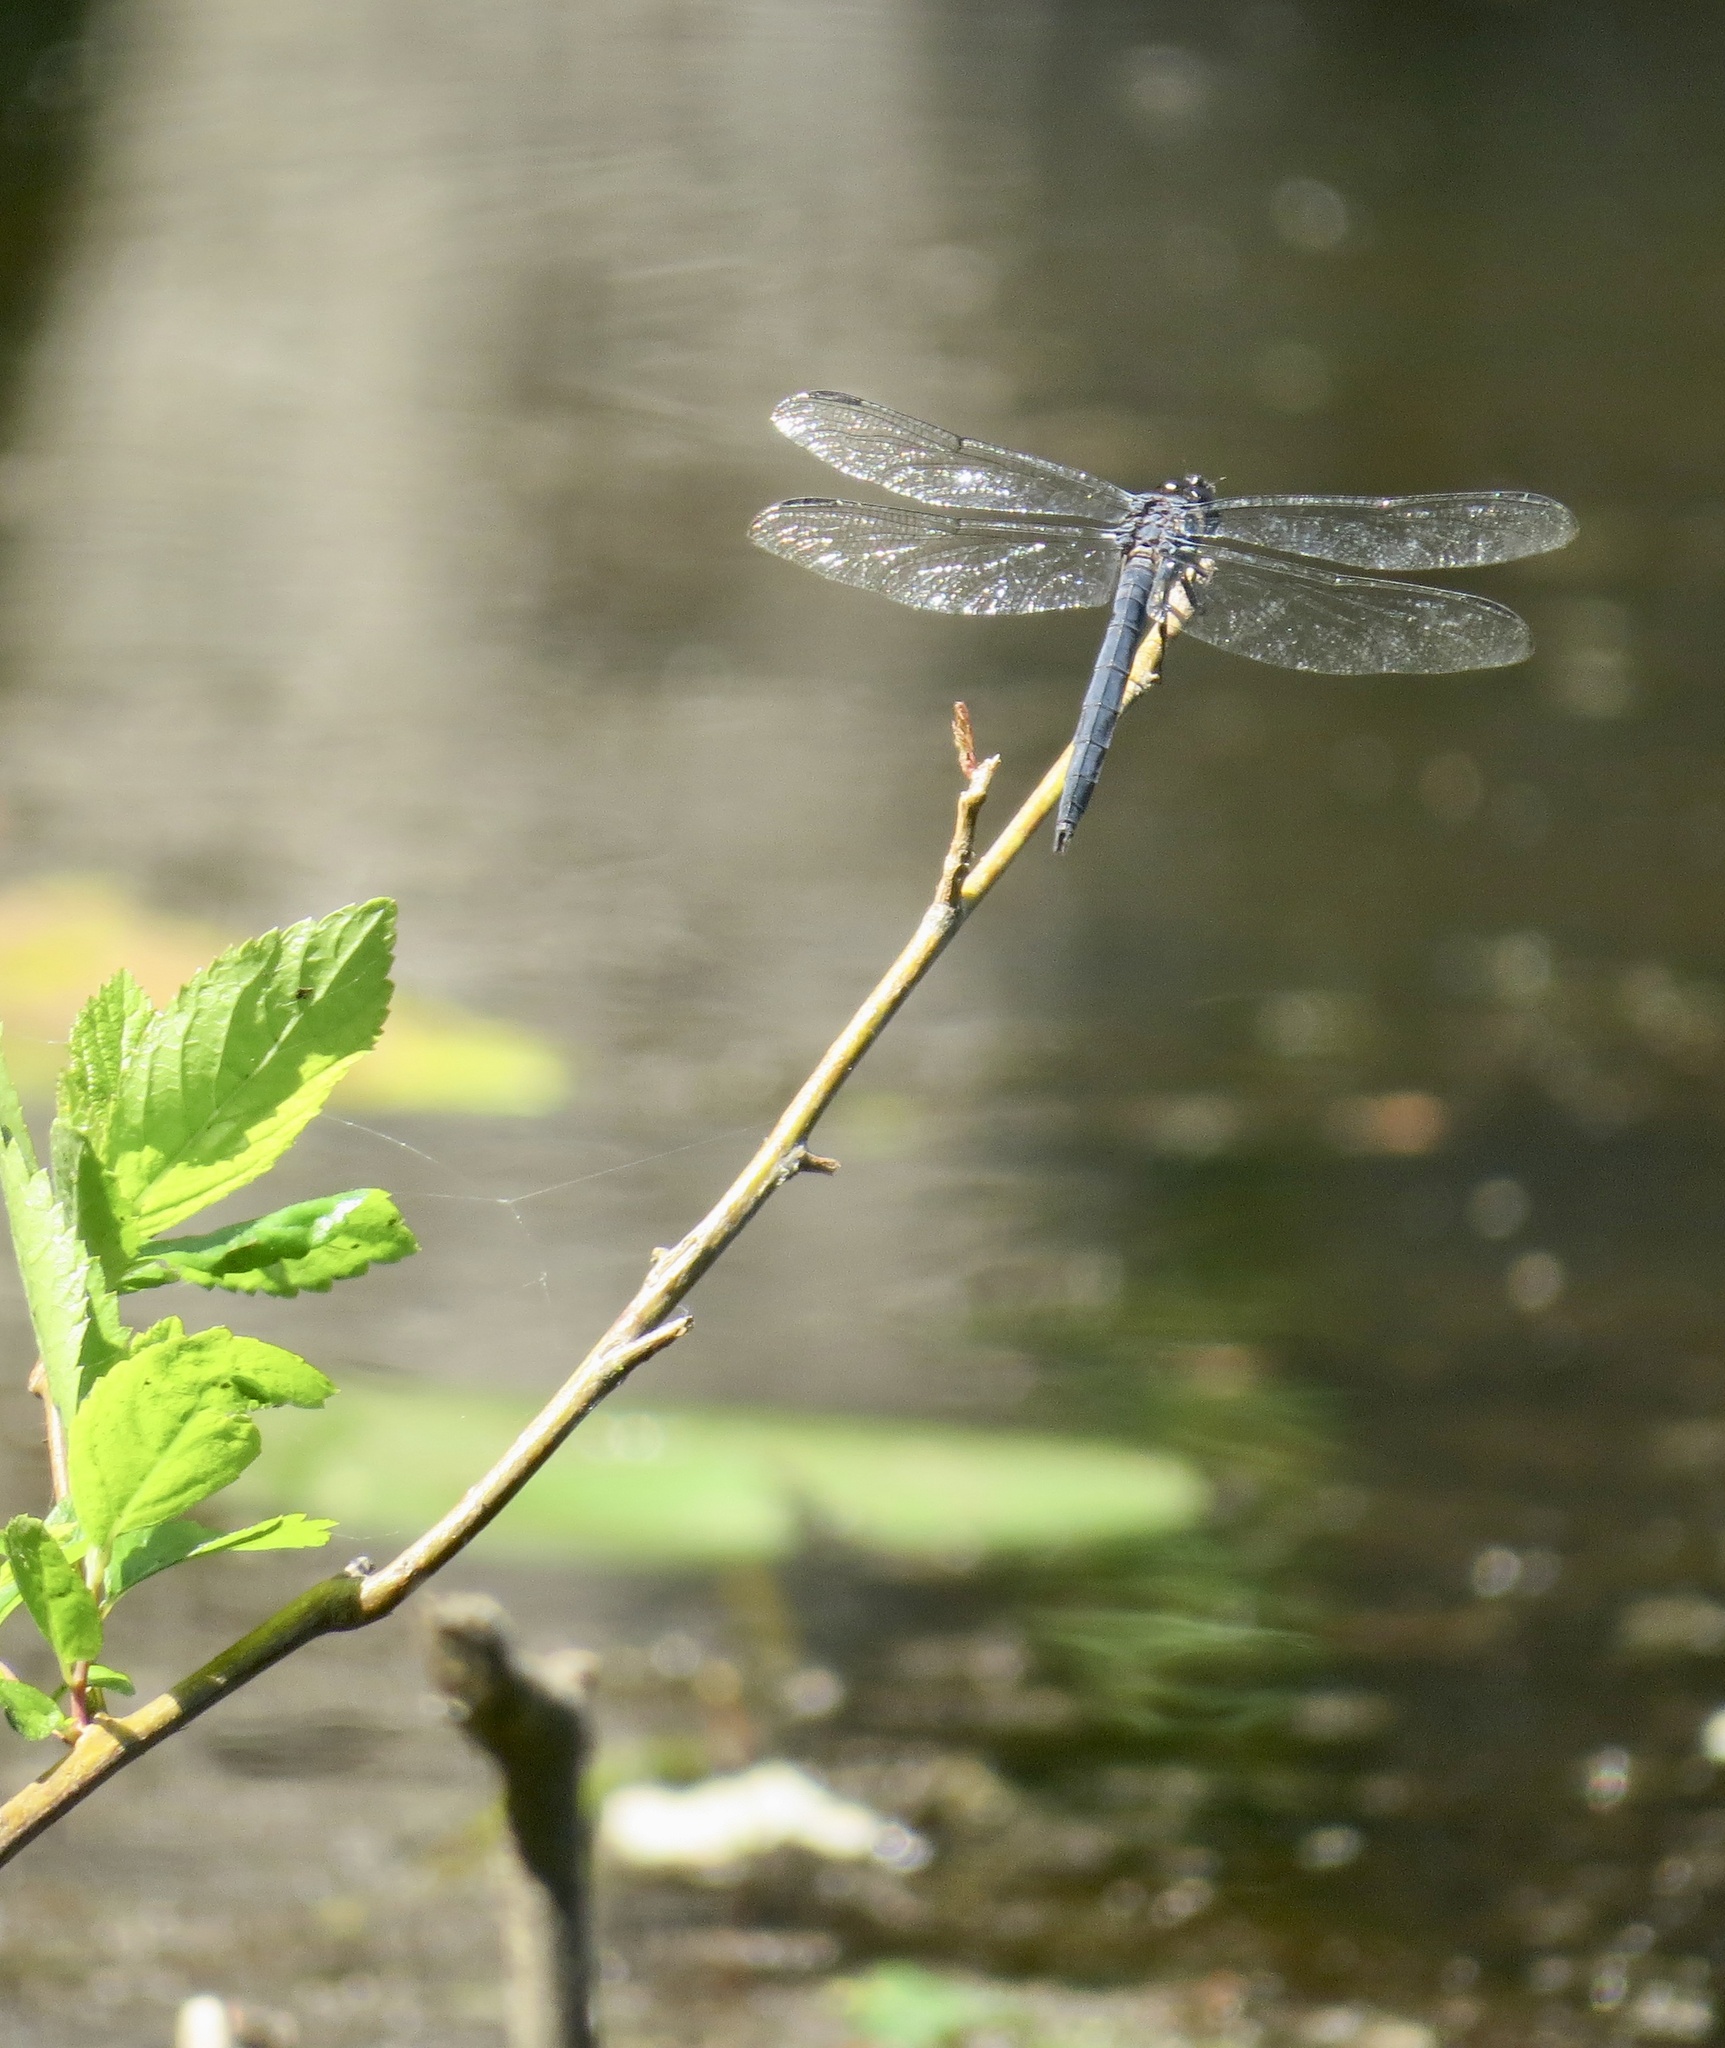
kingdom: Animalia
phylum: Arthropoda
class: Insecta
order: Odonata
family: Libellulidae
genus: Libellula
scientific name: Libellula incesta
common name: Slaty skimmer
